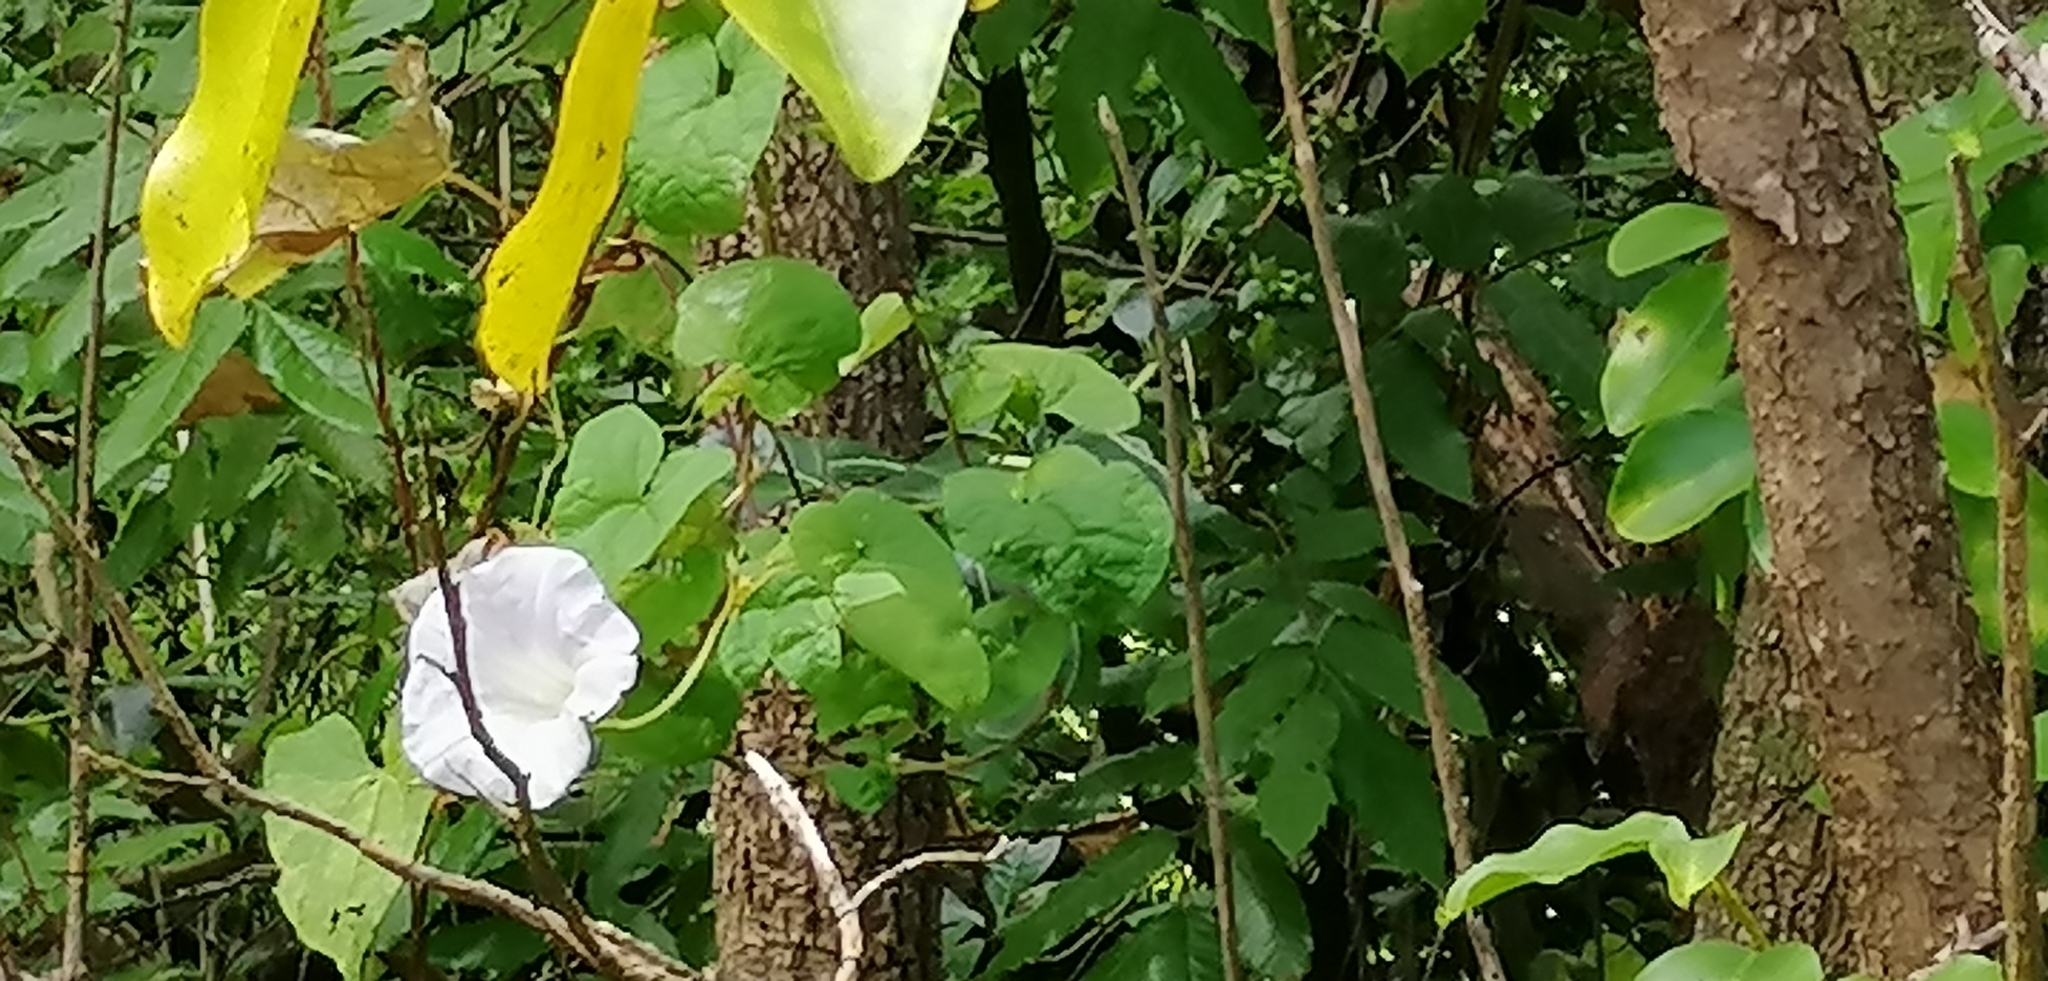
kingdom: Plantae
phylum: Tracheophyta
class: Magnoliopsida
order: Solanales
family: Convolvulaceae
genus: Calystegia
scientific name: Calystegia silvatica
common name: Large bindweed
